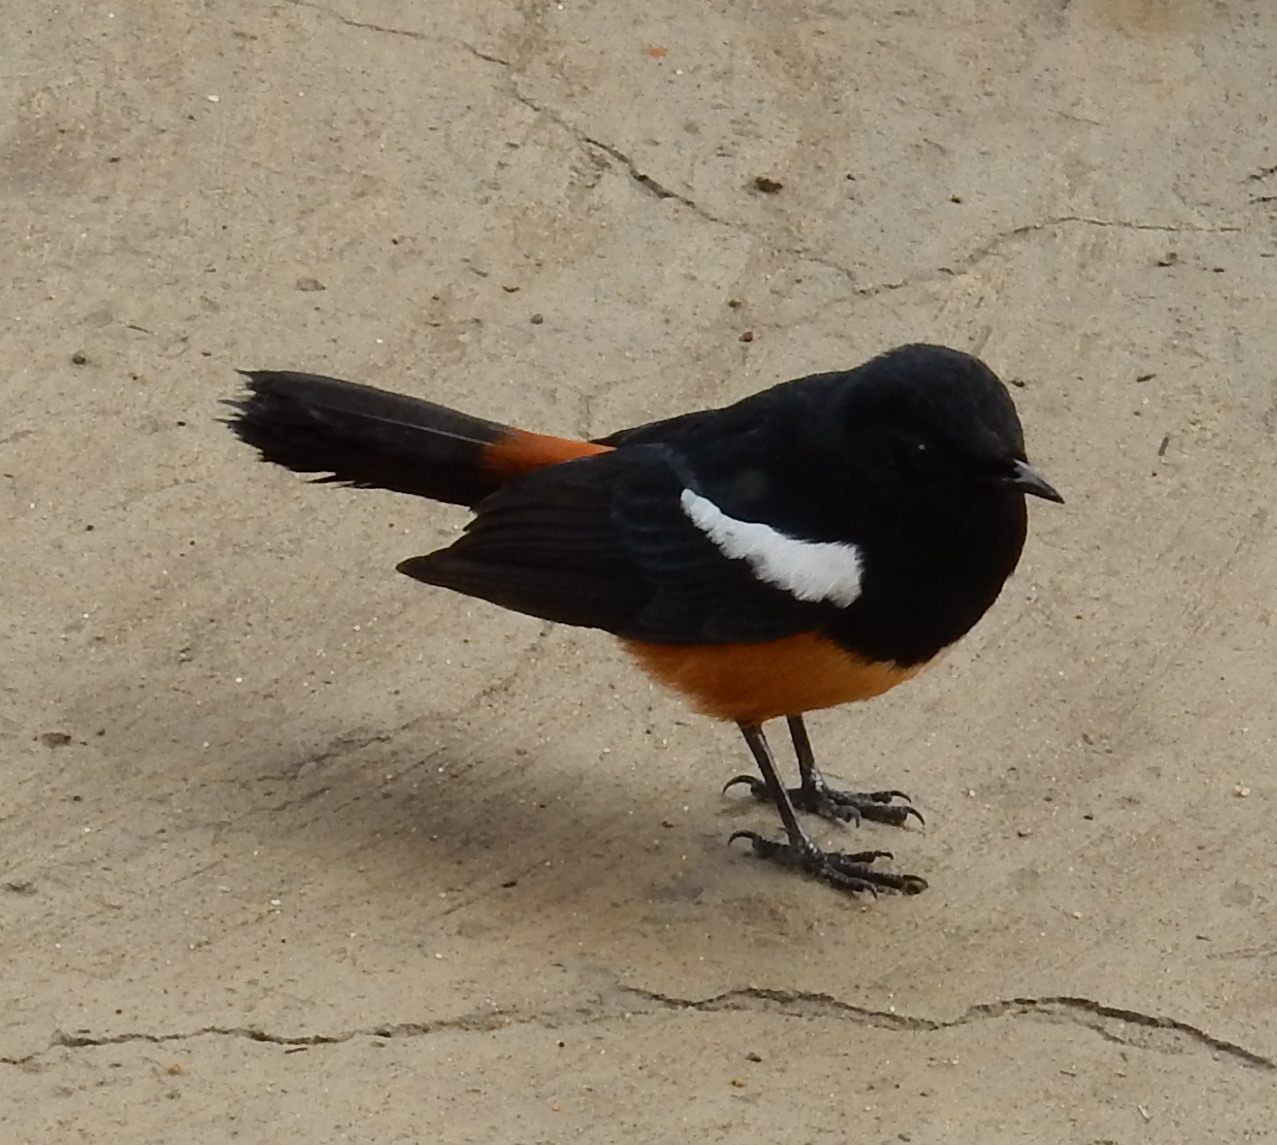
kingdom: Animalia
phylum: Chordata
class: Aves
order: Passeriformes
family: Muscicapidae
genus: Thamnolaea
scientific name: Thamnolaea cinnamomeiventris
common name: Mocking cliff chat
